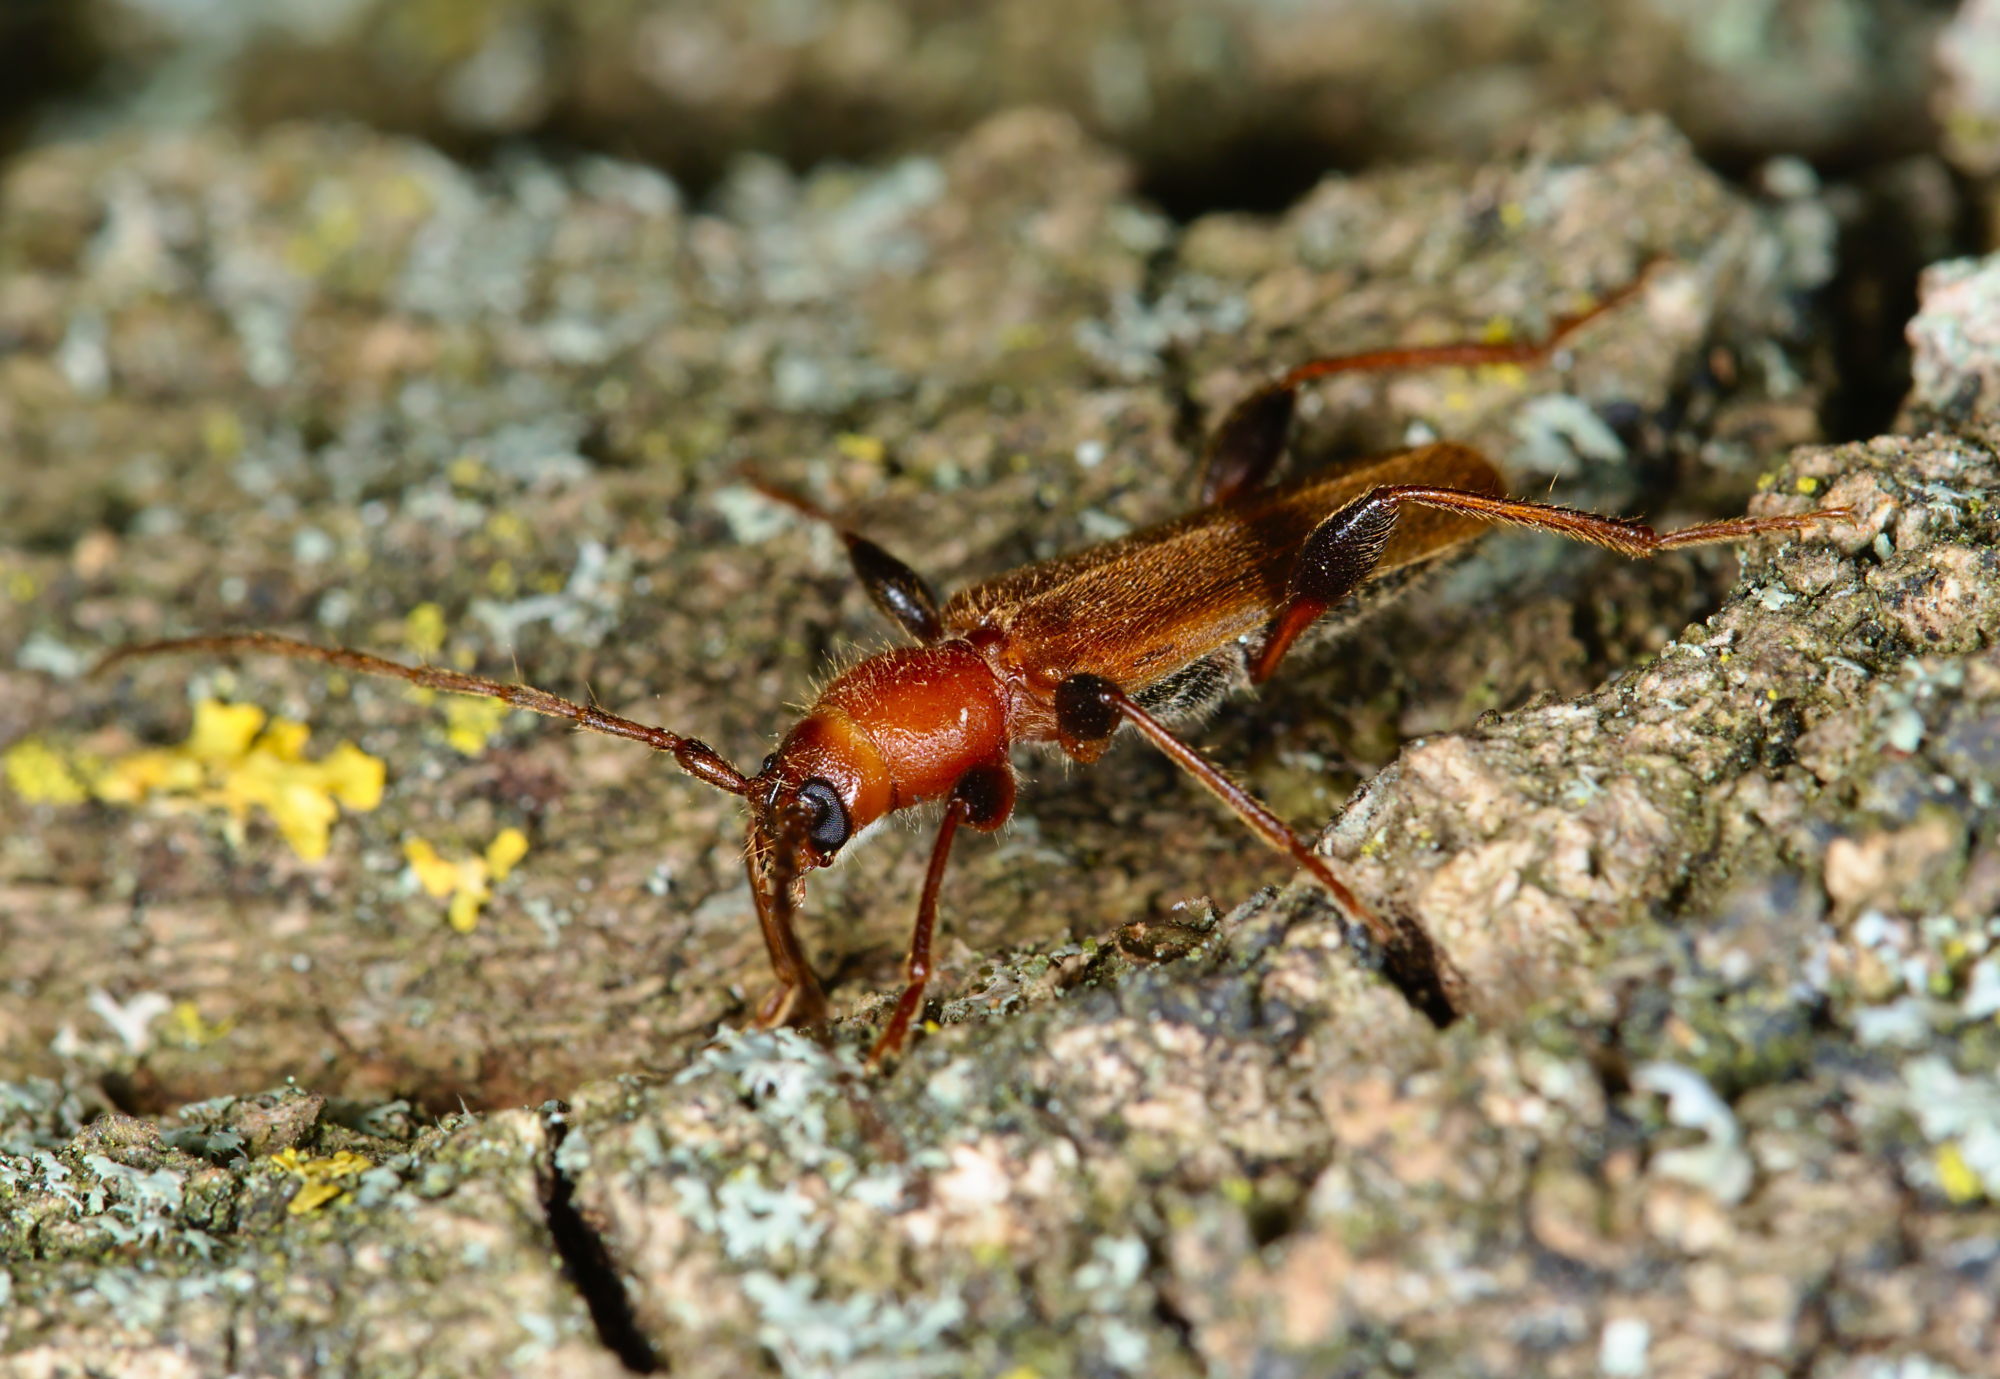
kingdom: Animalia
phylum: Arthropoda
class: Insecta
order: Coleoptera
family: Cerambycidae
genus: Phymatodes
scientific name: Phymatodes testaceus
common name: Long-horned beetle
